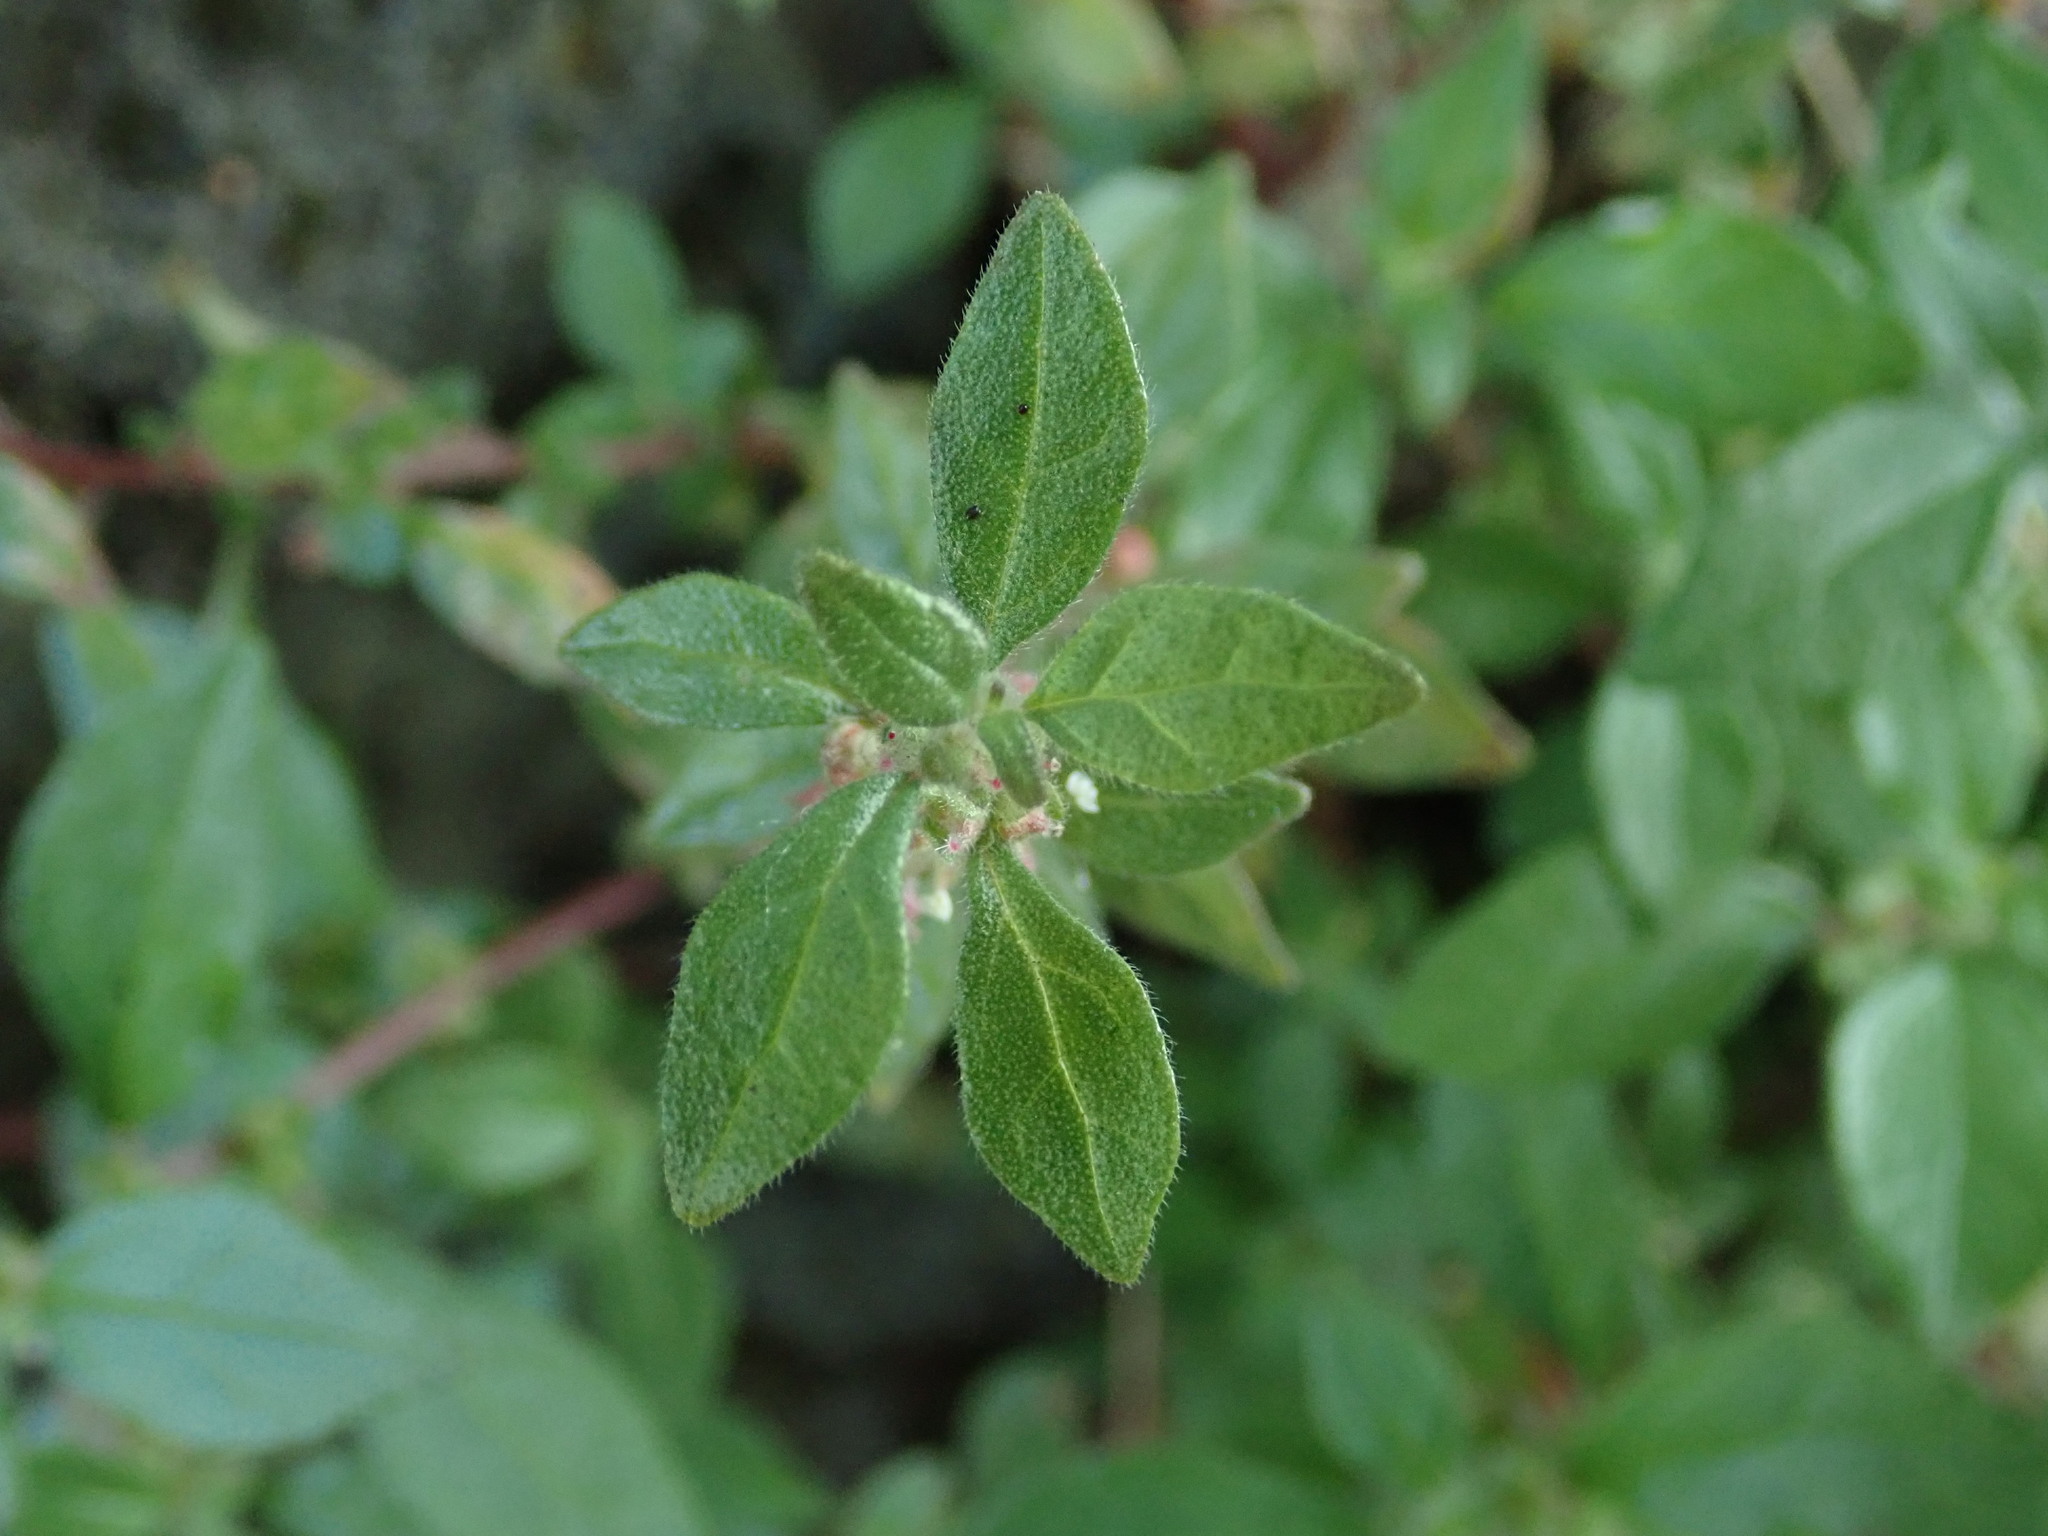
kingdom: Plantae
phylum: Tracheophyta
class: Magnoliopsida
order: Rosales
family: Urticaceae
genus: Parietaria
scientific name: Parietaria judaica
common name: Pellitory-of-the-wall
